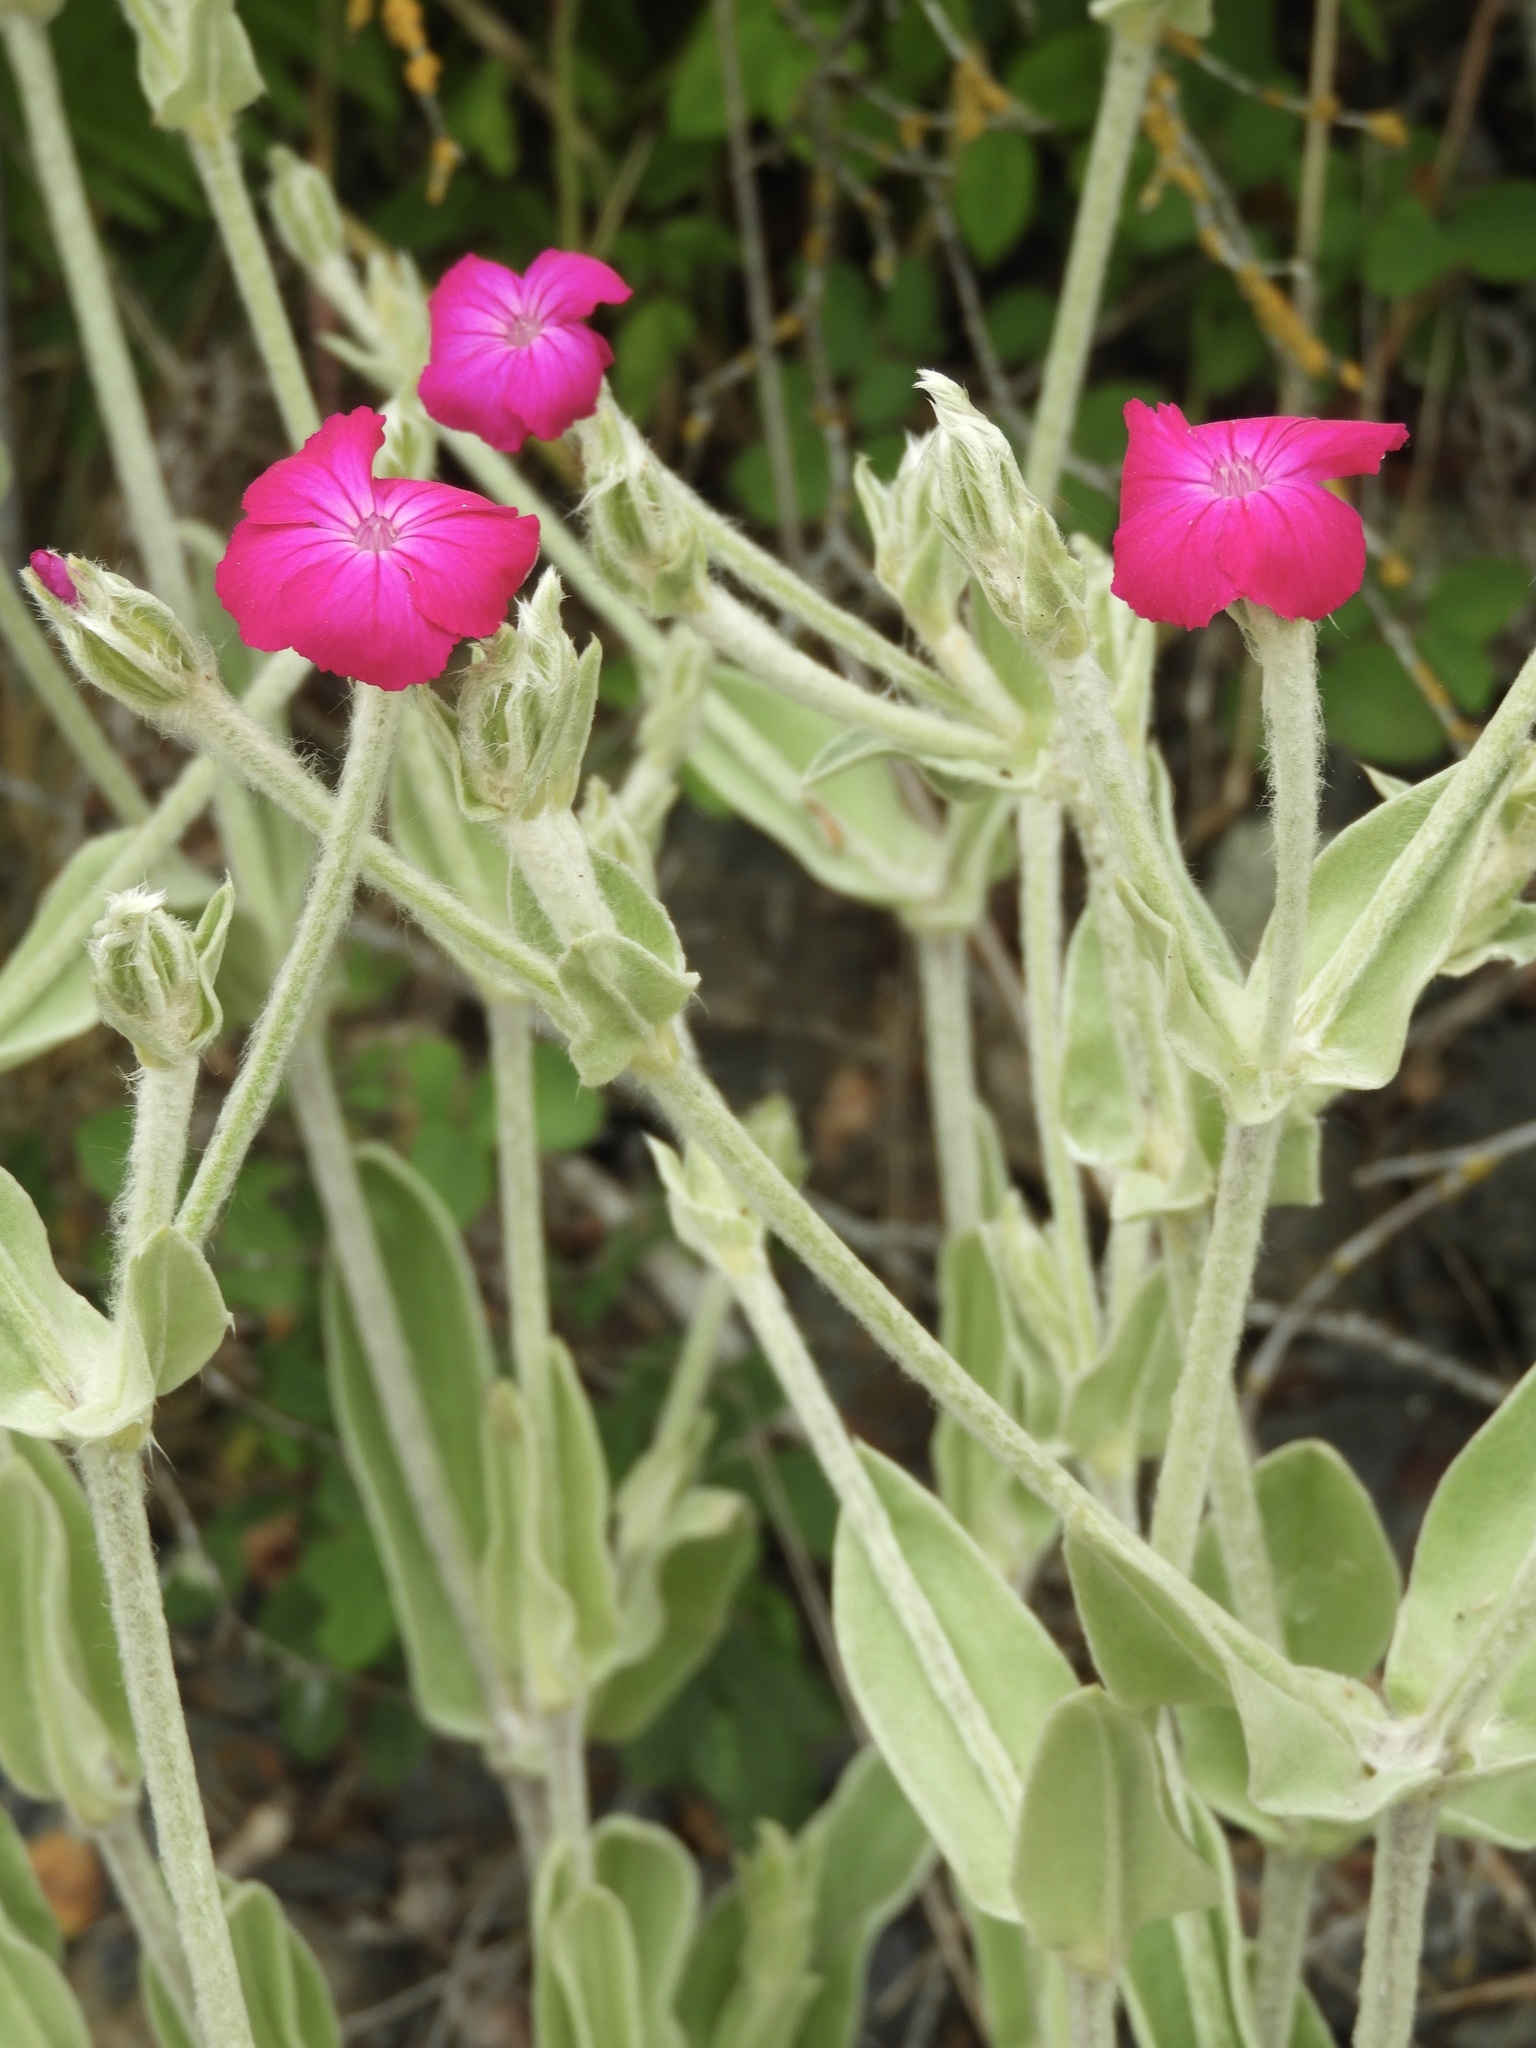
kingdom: Plantae
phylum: Tracheophyta
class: Magnoliopsida
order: Caryophyllales
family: Caryophyllaceae
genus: Silene
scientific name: Silene coronaria
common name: Rose campion
